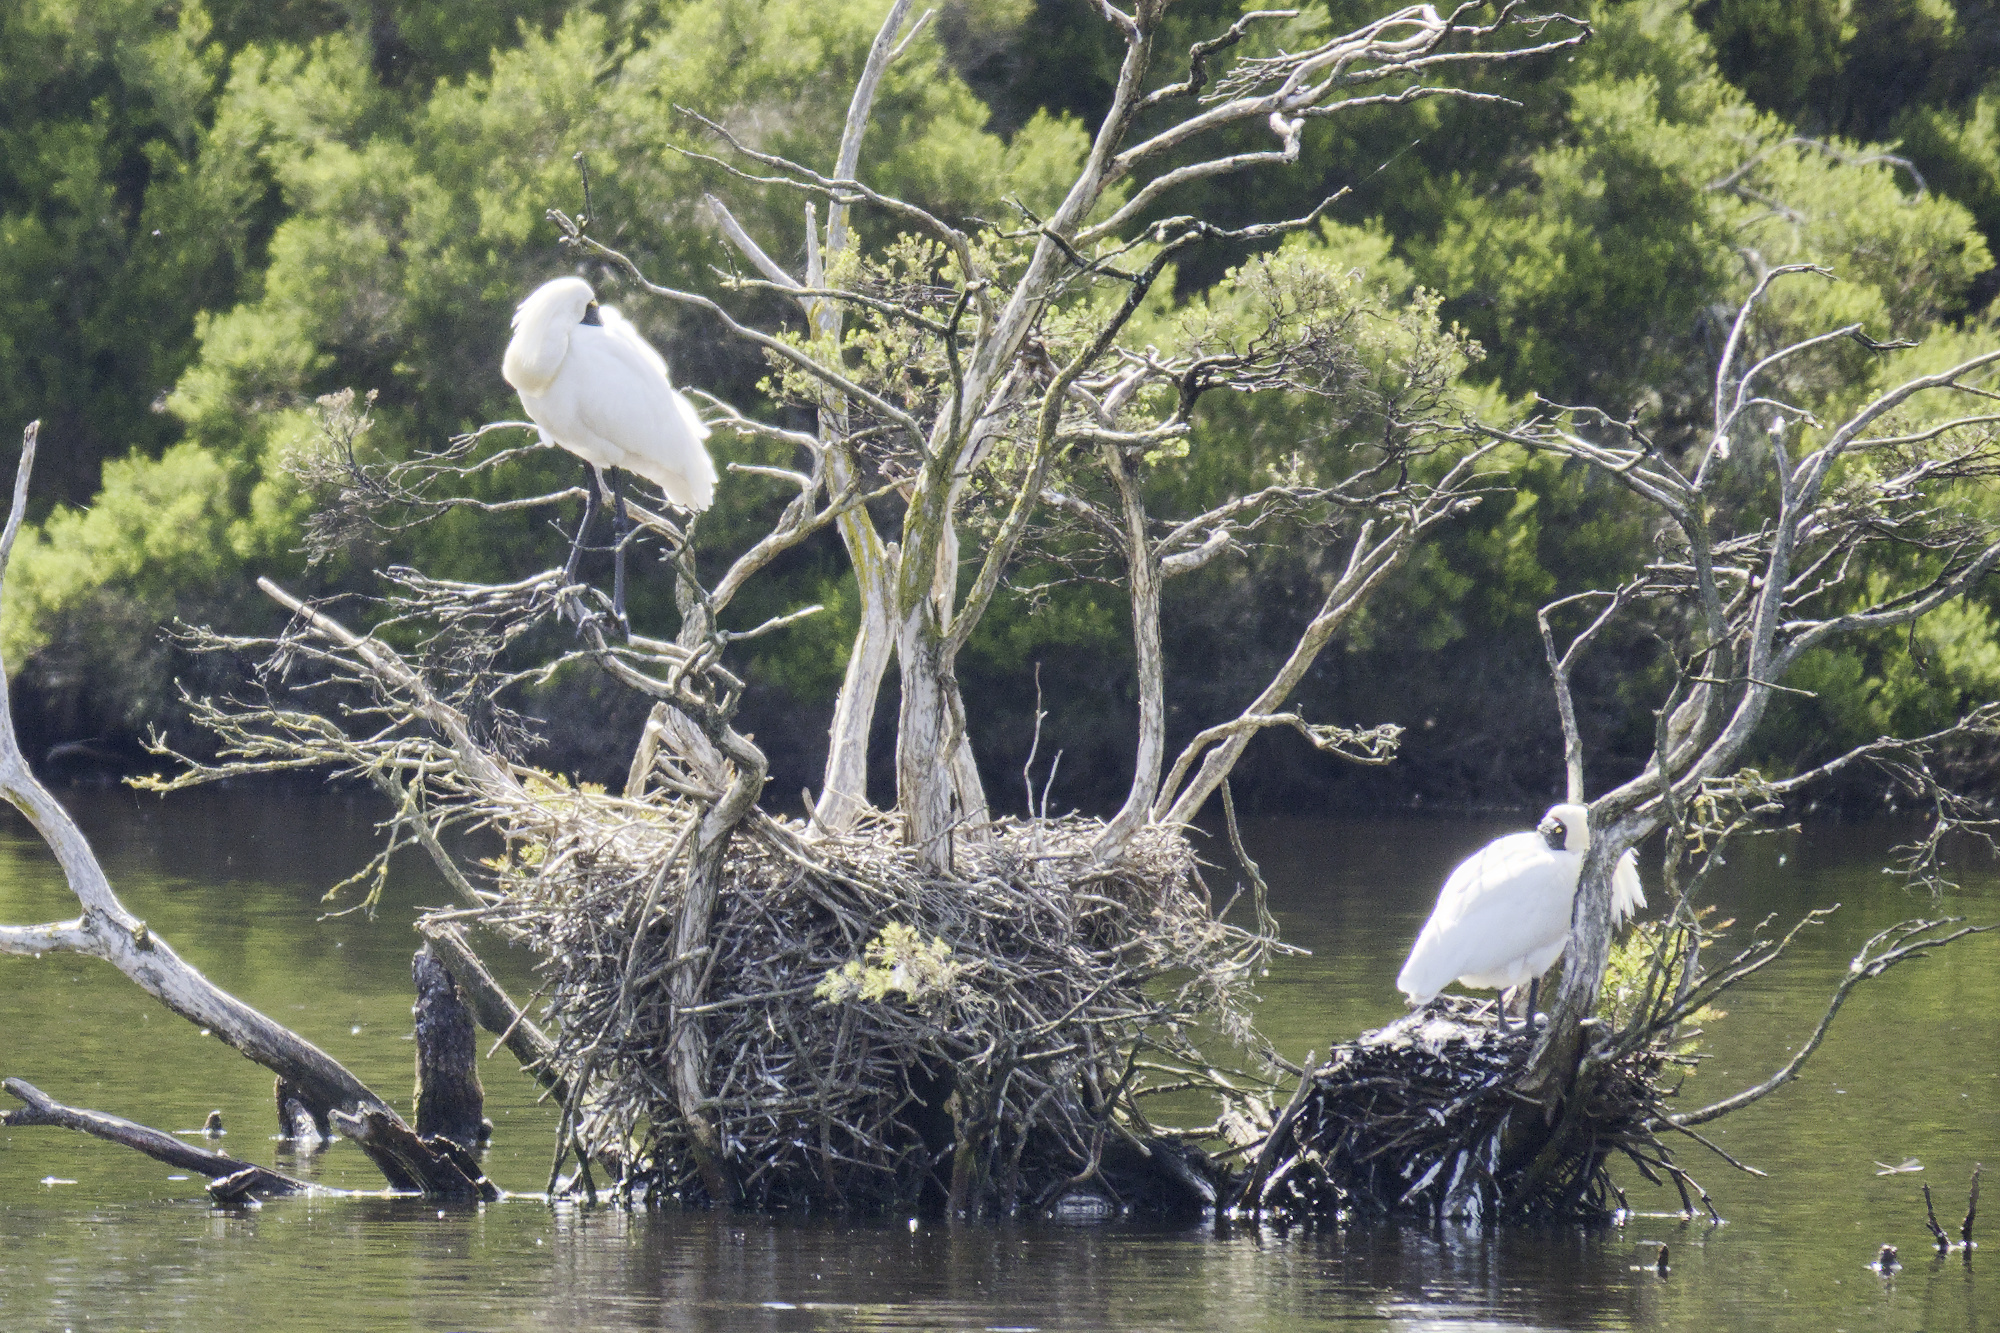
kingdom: Animalia
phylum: Chordata
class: Aves
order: Pelecaniformes
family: Threskiornithidae
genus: Platalea
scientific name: Platalea regia
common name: Royal spoonbill
